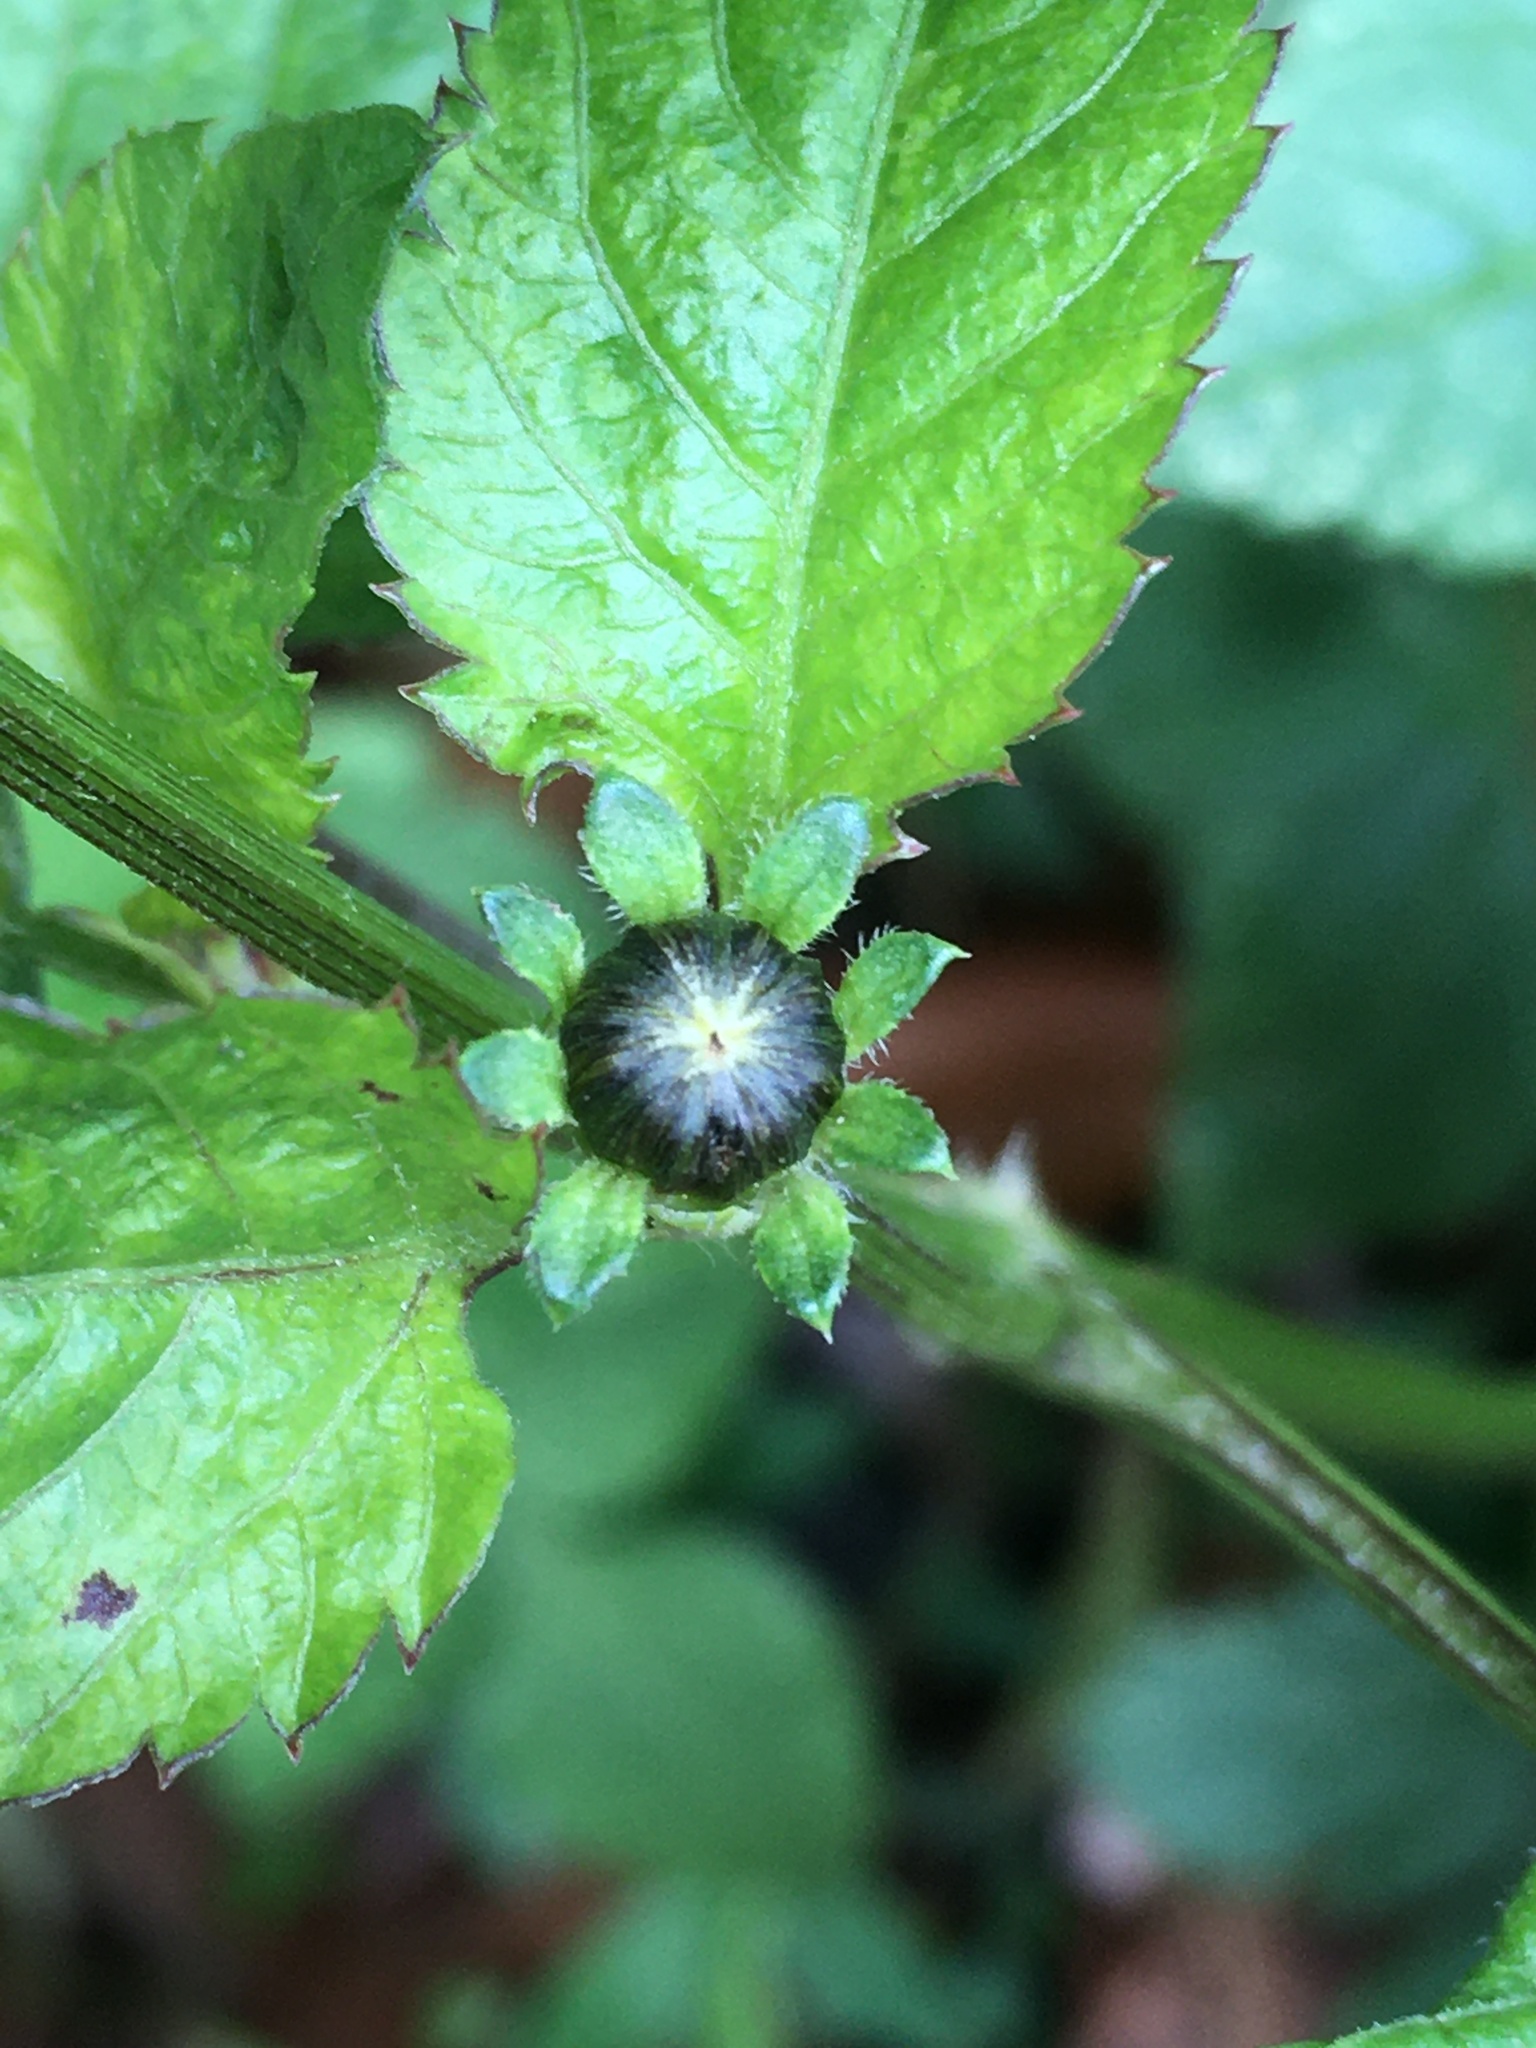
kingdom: Plantae
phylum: Tracheophyta
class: Magnoliopsida
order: Asterales
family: Asteraceae
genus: Bidens
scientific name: Bidens pilosa
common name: Black-jack
